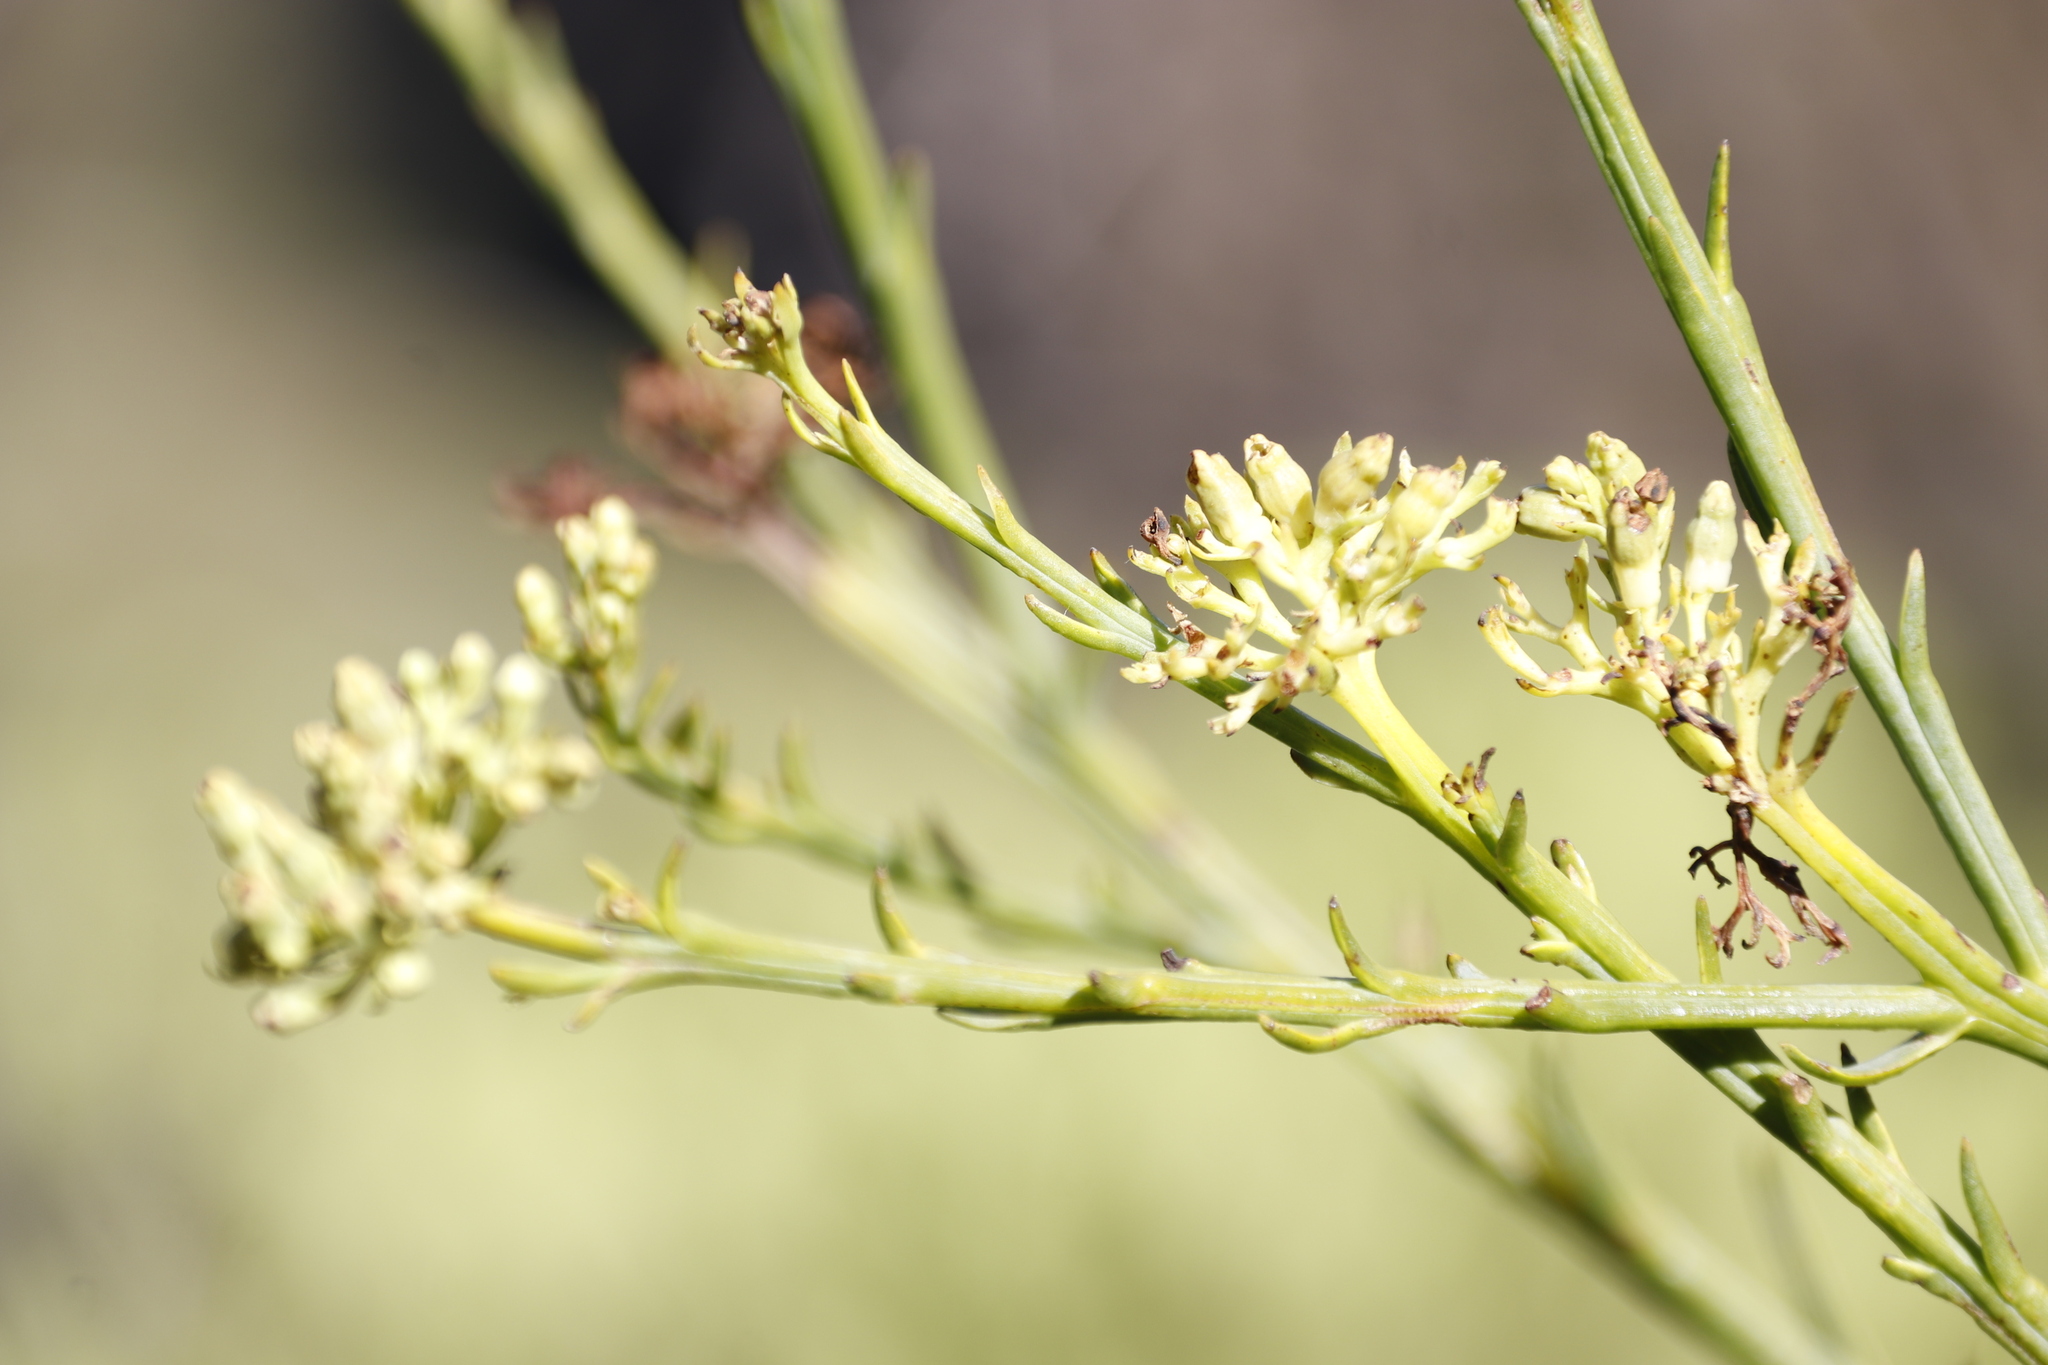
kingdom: Plantae
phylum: Tracheophyta
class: Magnoliopsida
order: Santalales
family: Thesiaceae
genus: Thesium
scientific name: Thesium strictum
